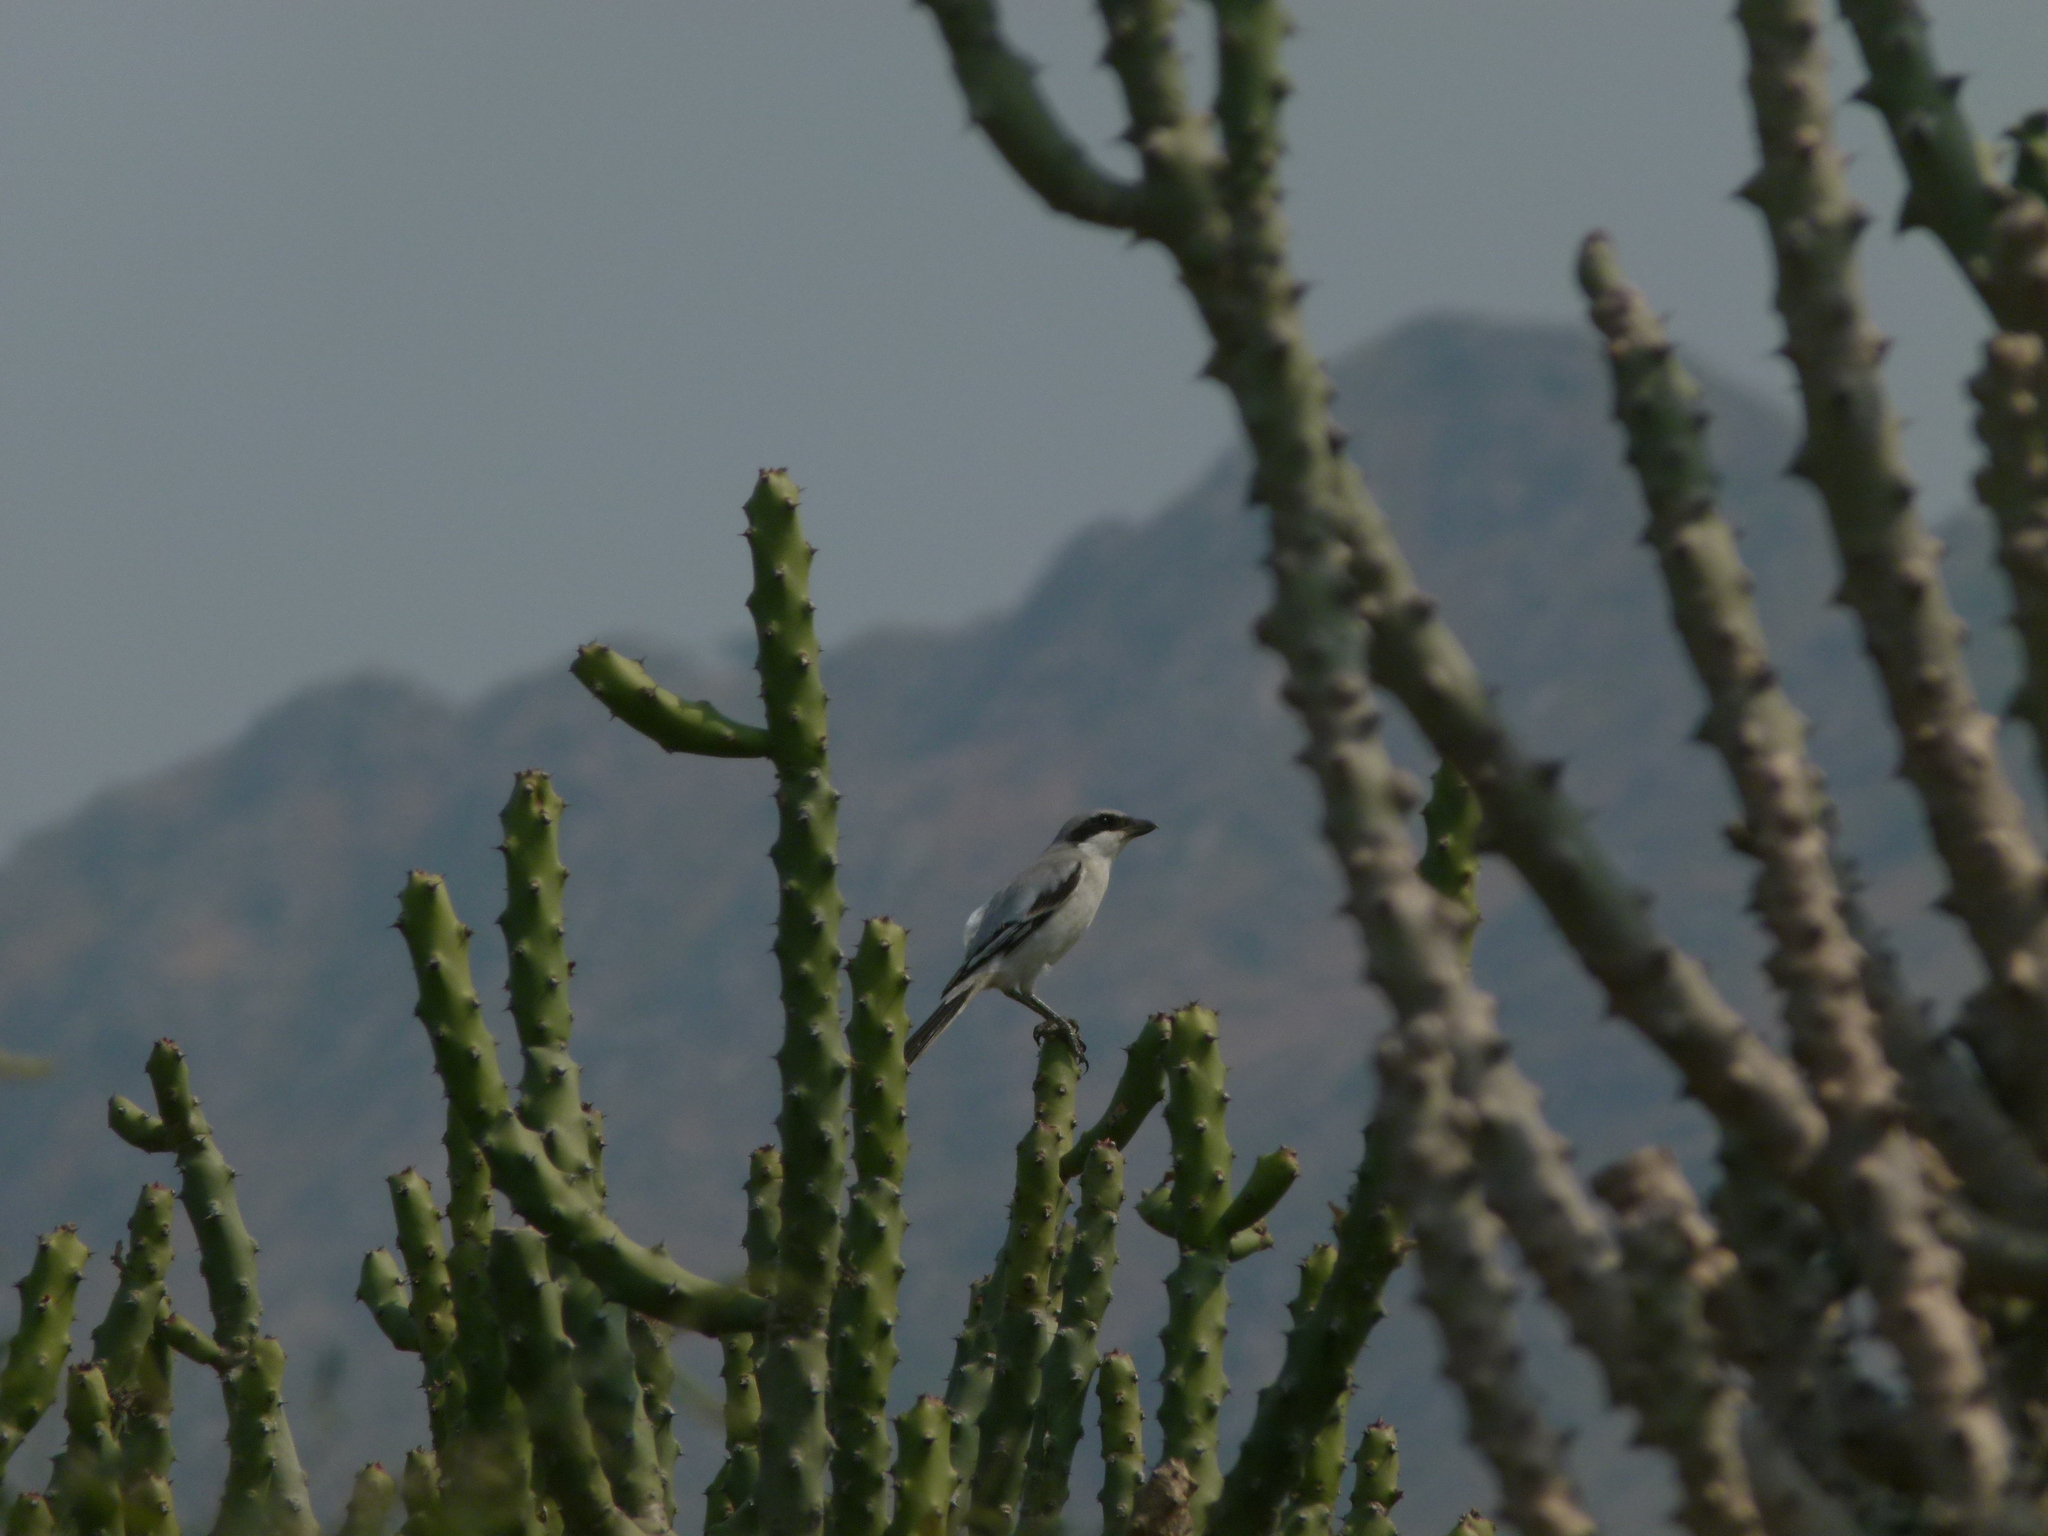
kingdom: Animalia
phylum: Chordata
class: Aves
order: Passeriformes
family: Laniidae
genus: Lanius
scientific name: Lanius meridionalis
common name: Iberian grey shrike
